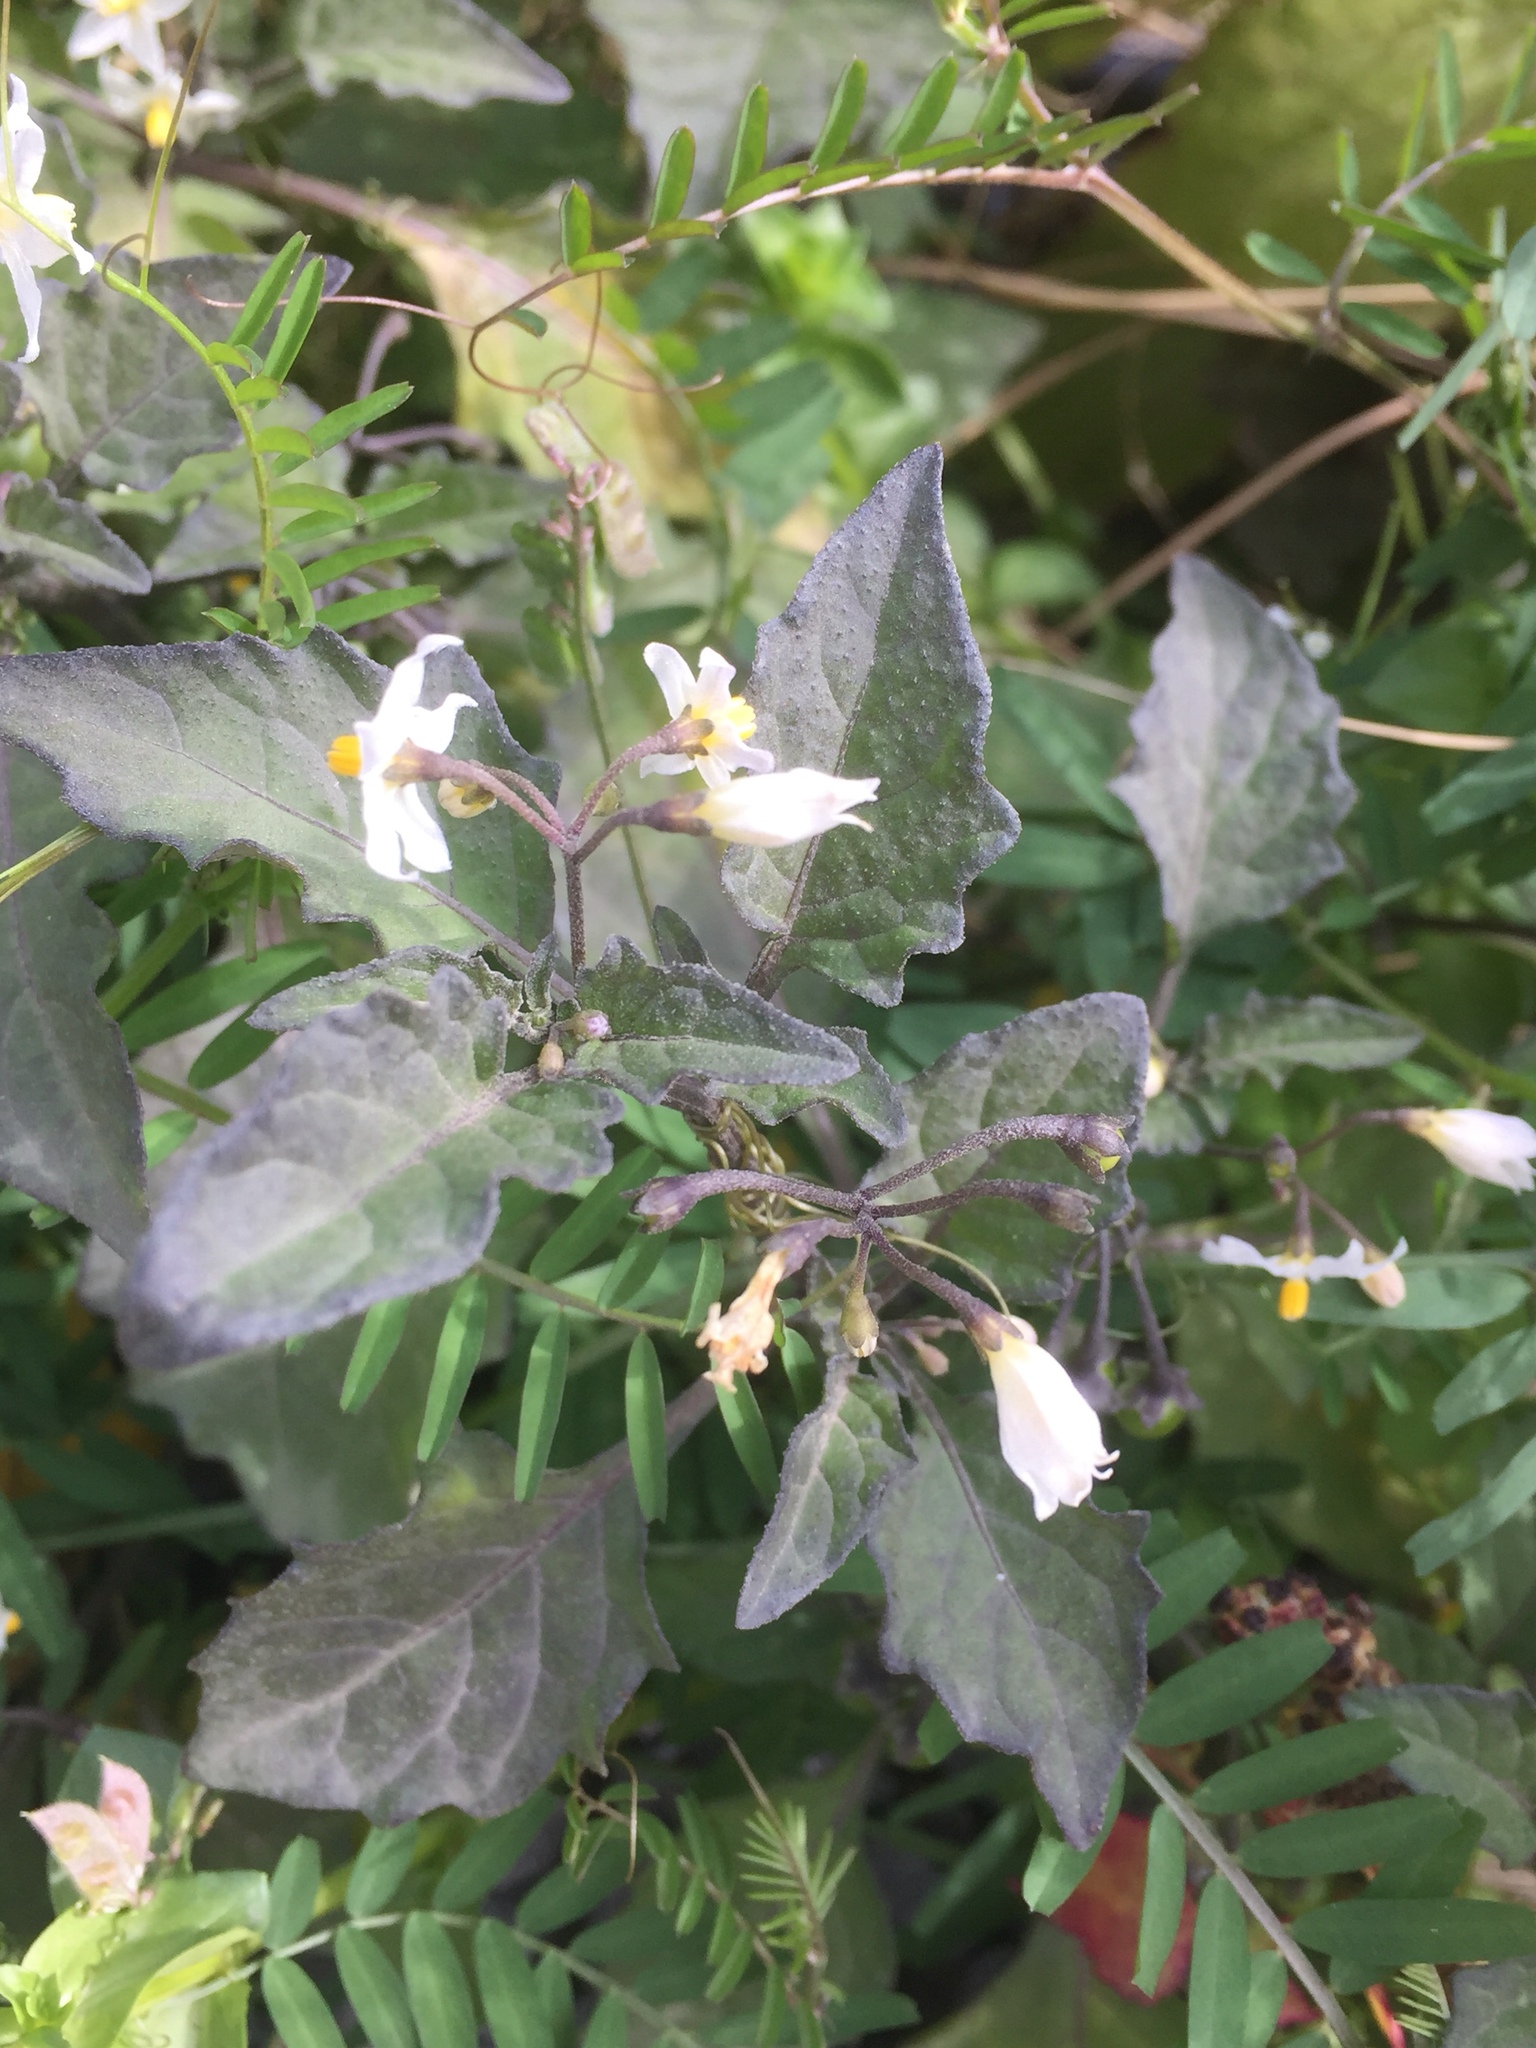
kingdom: Plantae
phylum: Tracheophyta
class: Magnoliopsida
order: Solanales
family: Solanaceae
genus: Solanum
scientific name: Solanum nigrum
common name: Black nightshade
